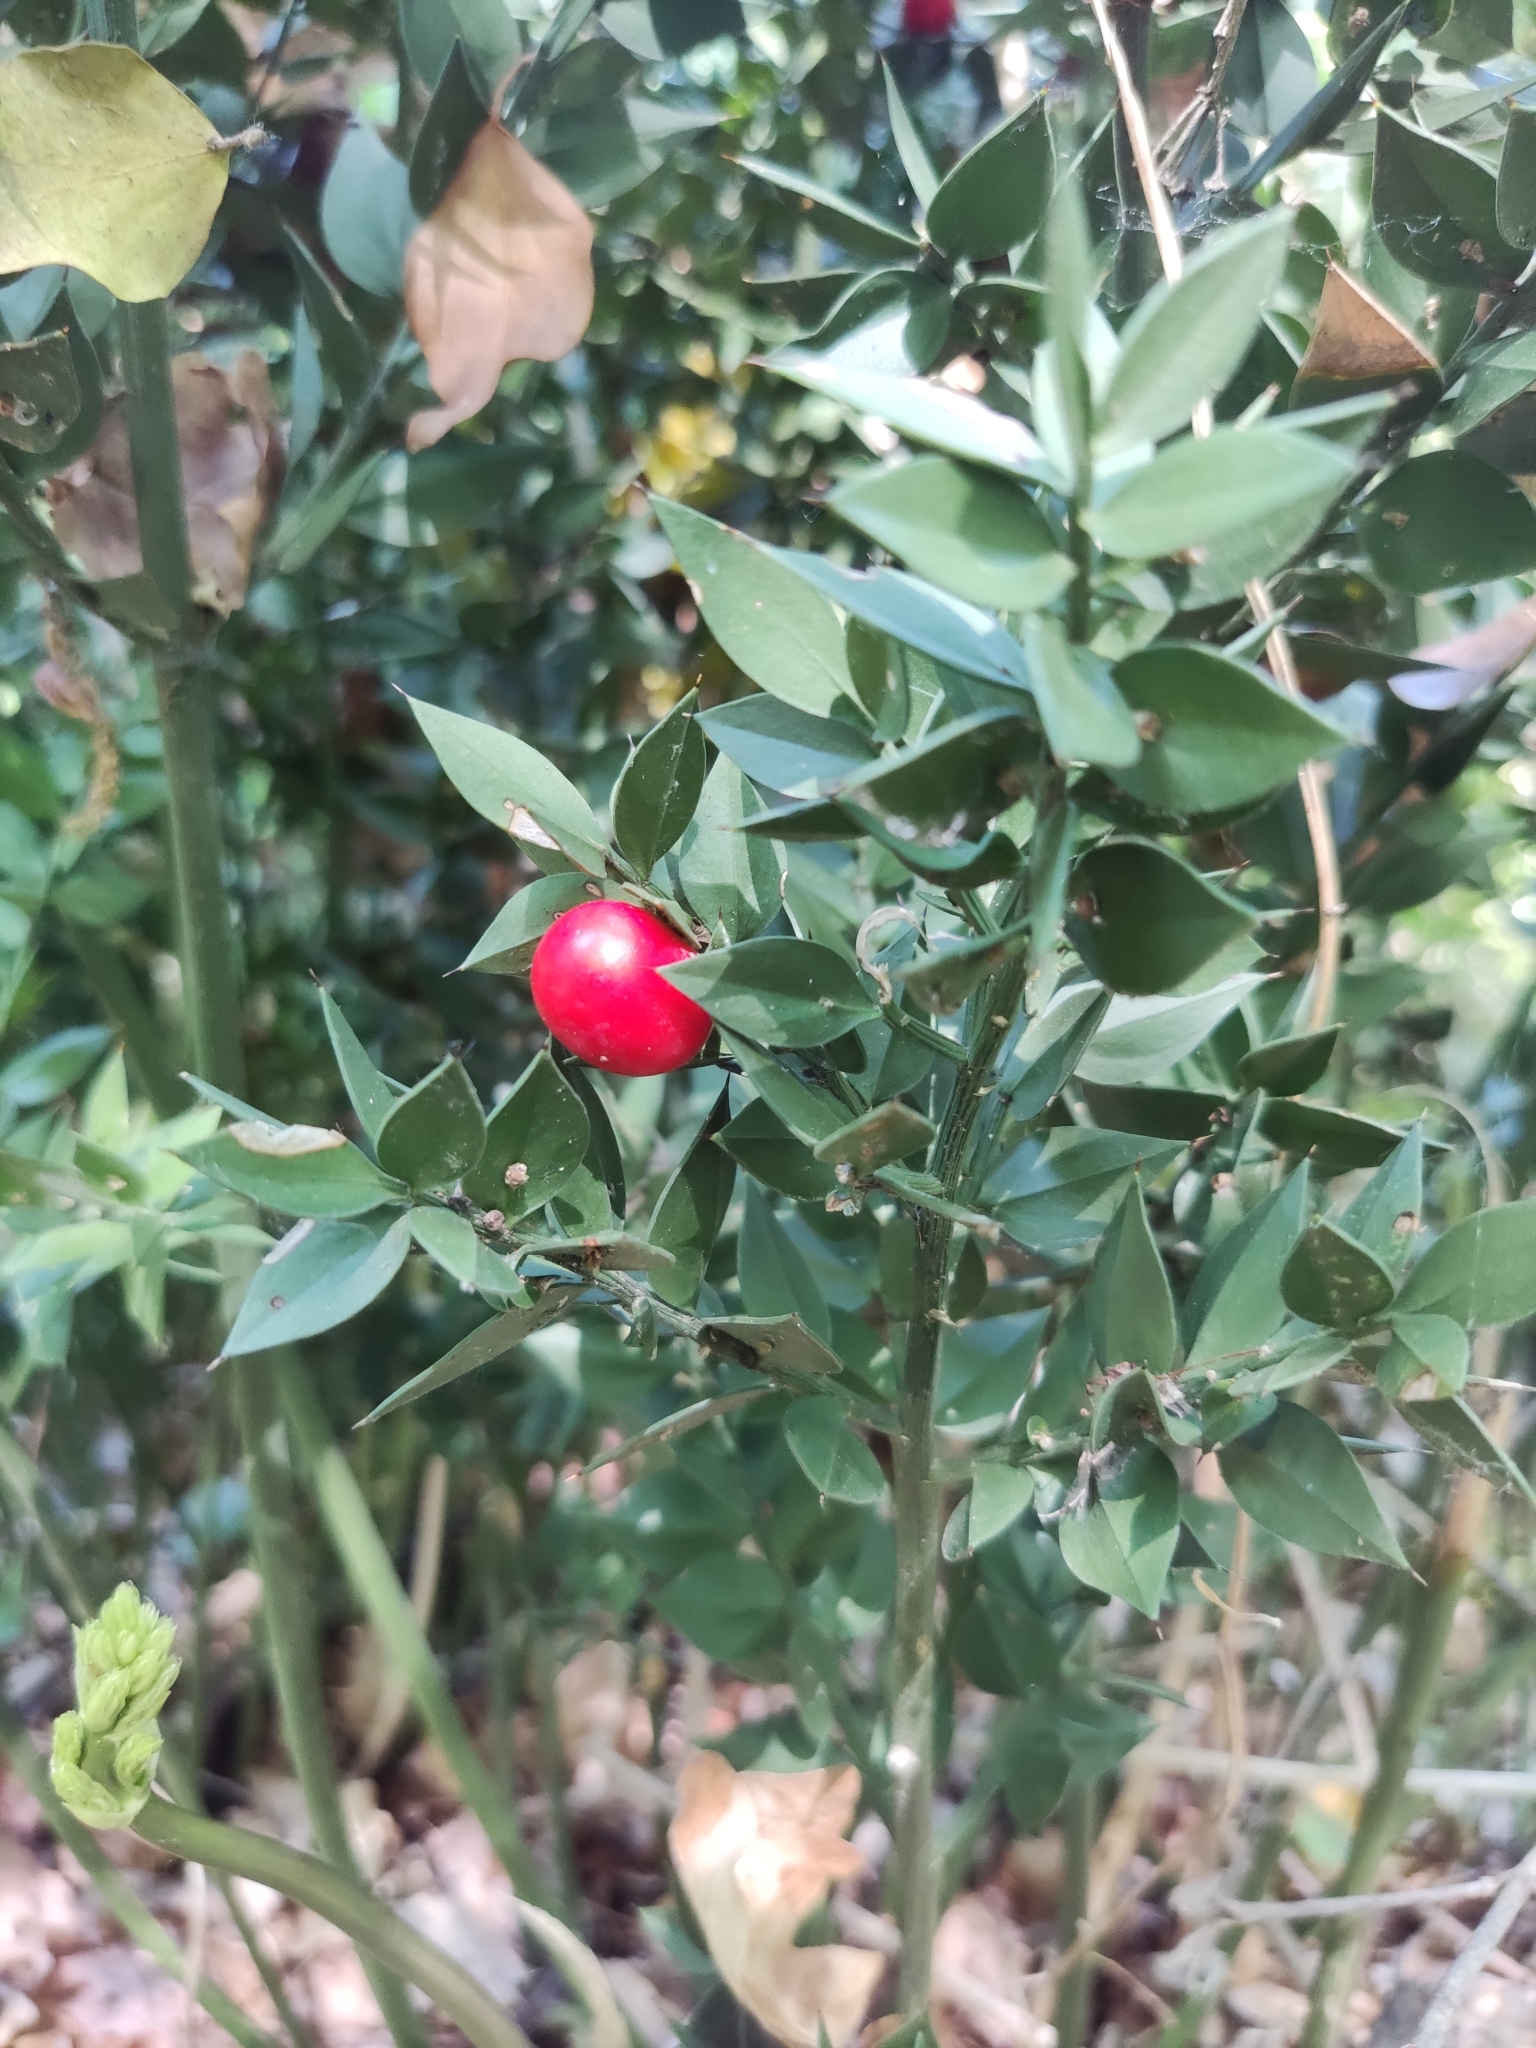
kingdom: Plantae
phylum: Tracheophyta
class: Liliopsida
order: Asparagales
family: Asparagaceae
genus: Ruscus
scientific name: Ruscus aculeatus
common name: Butcher's-broom
